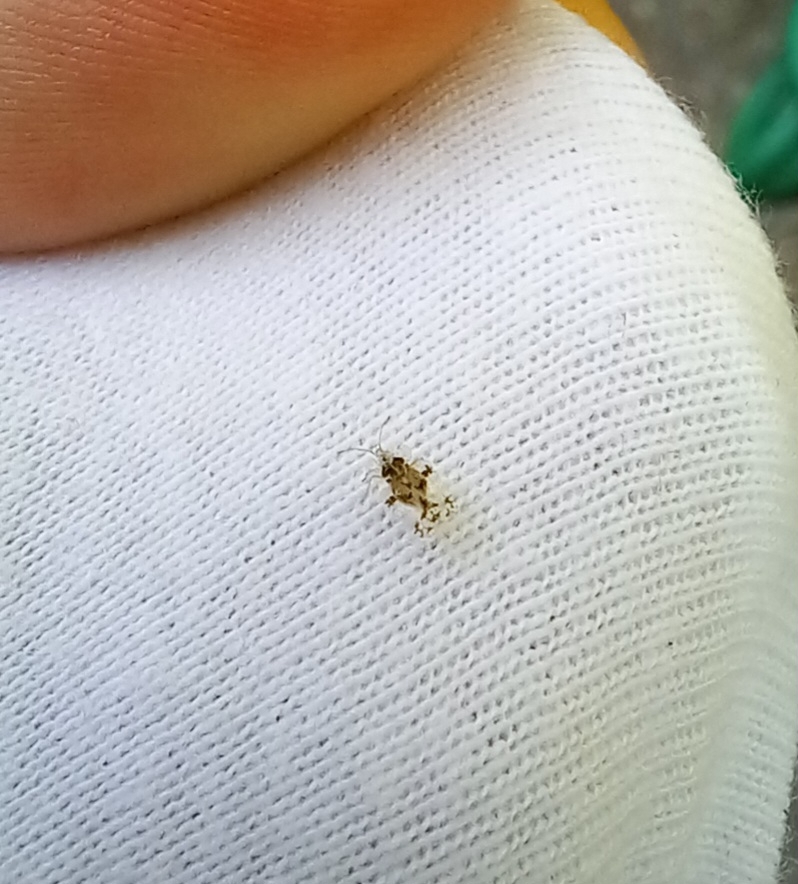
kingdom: Animalia
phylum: Arthropoda
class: Insecta
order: Hemiptera
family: Tingidae
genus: Corythucha
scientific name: Corythucha arcuata
